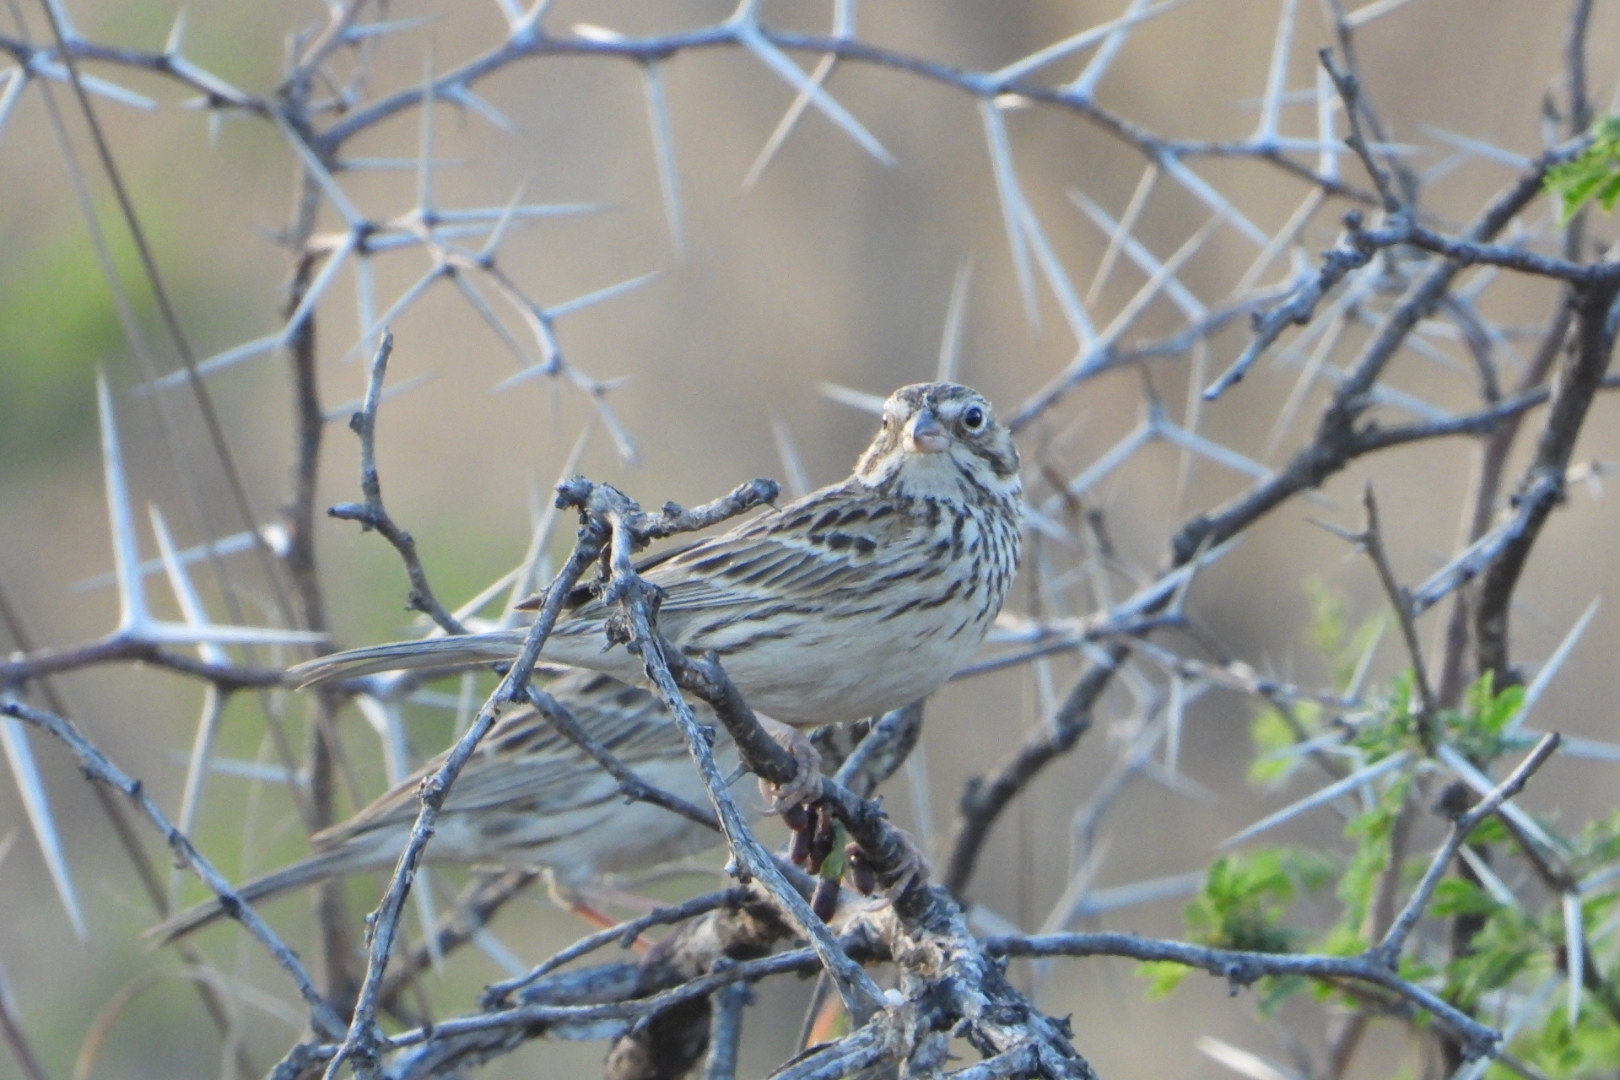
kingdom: Animalia
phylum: Chordata
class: Aves
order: Passeriformes
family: Passerellidae
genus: Pooecetes
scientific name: Pooecetes gramineus
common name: Vesper sparrow
